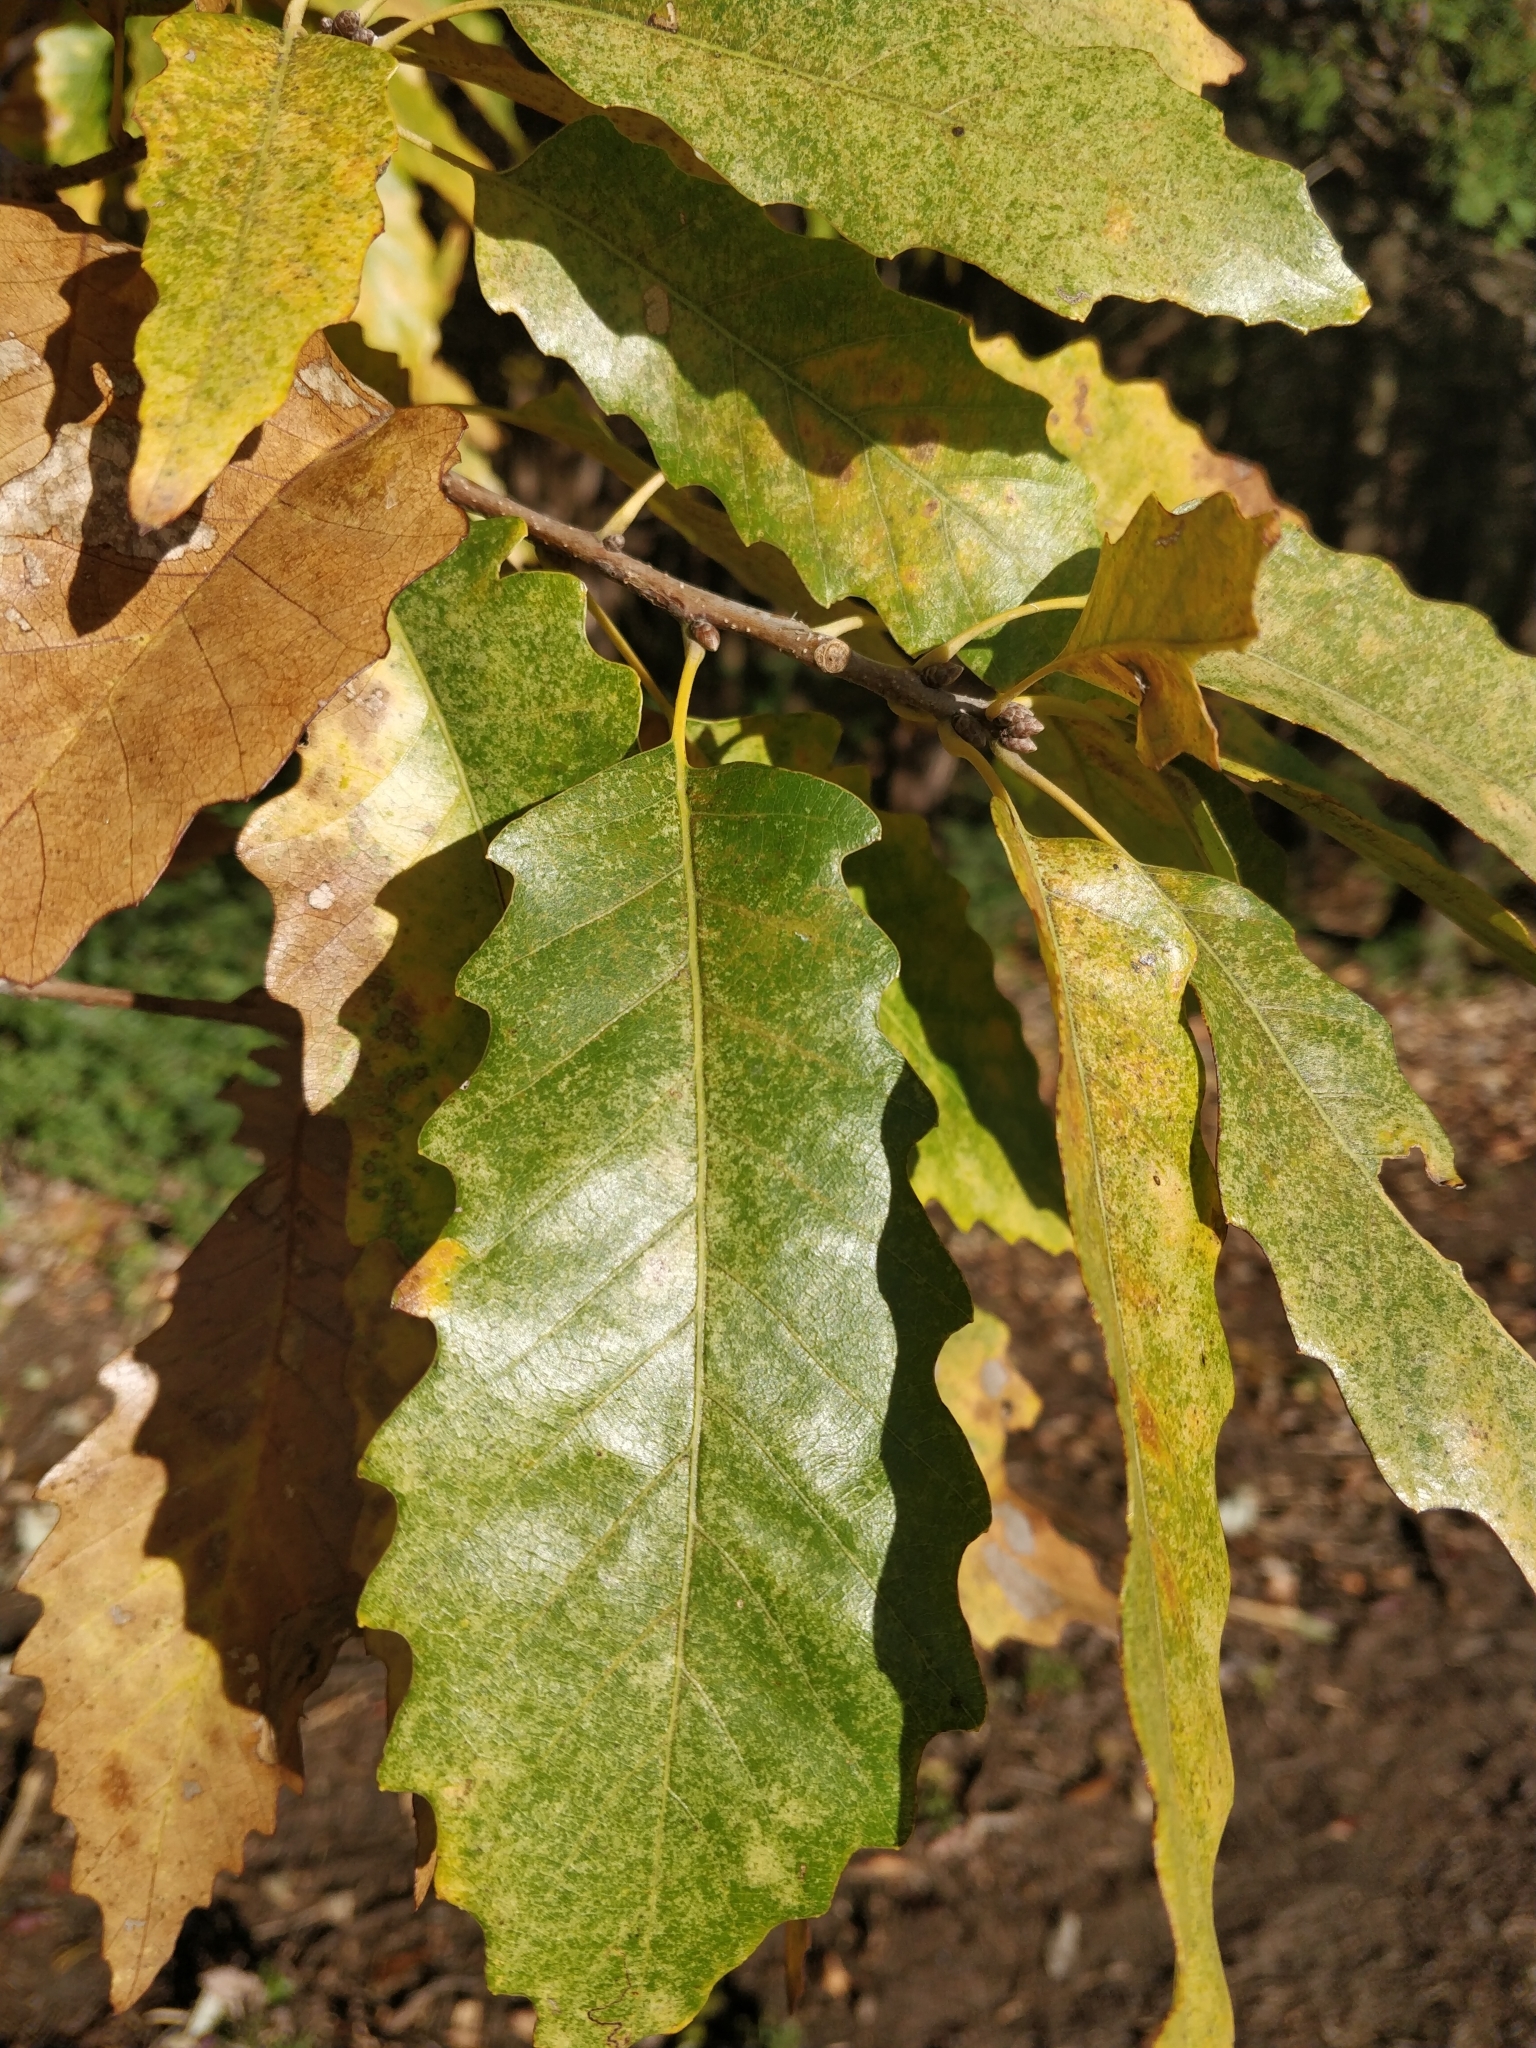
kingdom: Plantae
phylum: Tracheophyta
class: Magnoliopsida
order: Fagales
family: Fagaceae
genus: Quercus
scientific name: Quercus muehlenbergii
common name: Chinkapin oak
